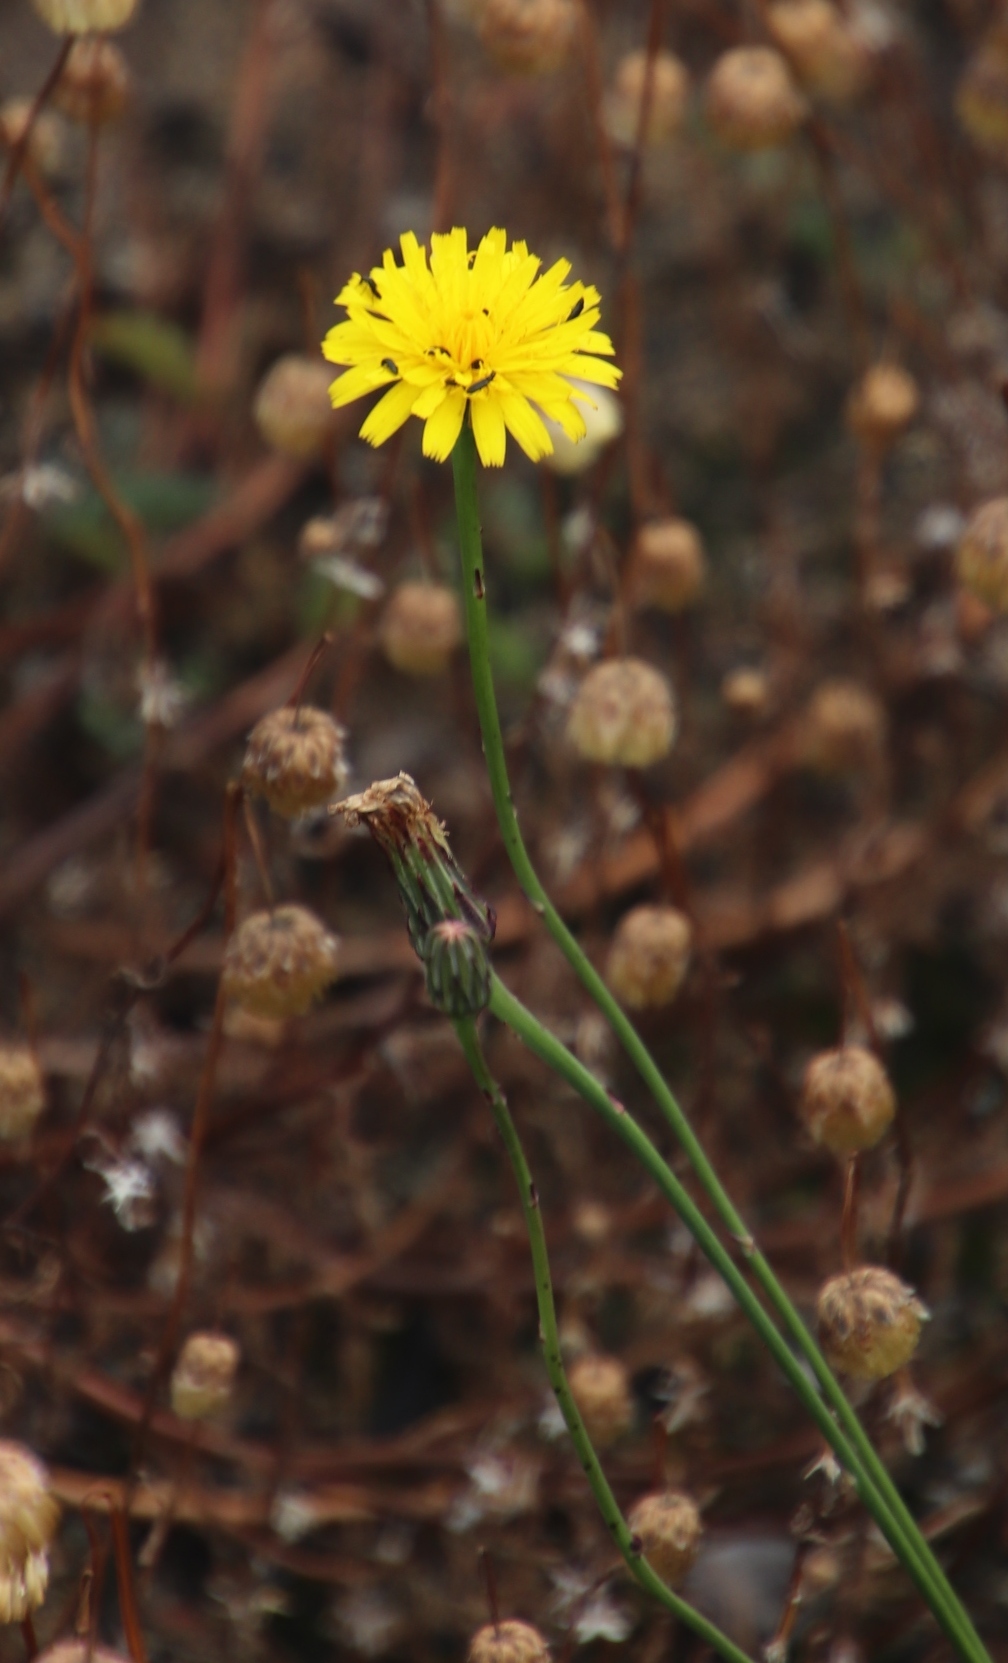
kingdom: Plantae
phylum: Tracheophyta
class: Magnoliopsida
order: Asterales
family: Asteraceae
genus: Hypochaeris
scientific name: Hypochaeris radicata
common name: Flatweed
